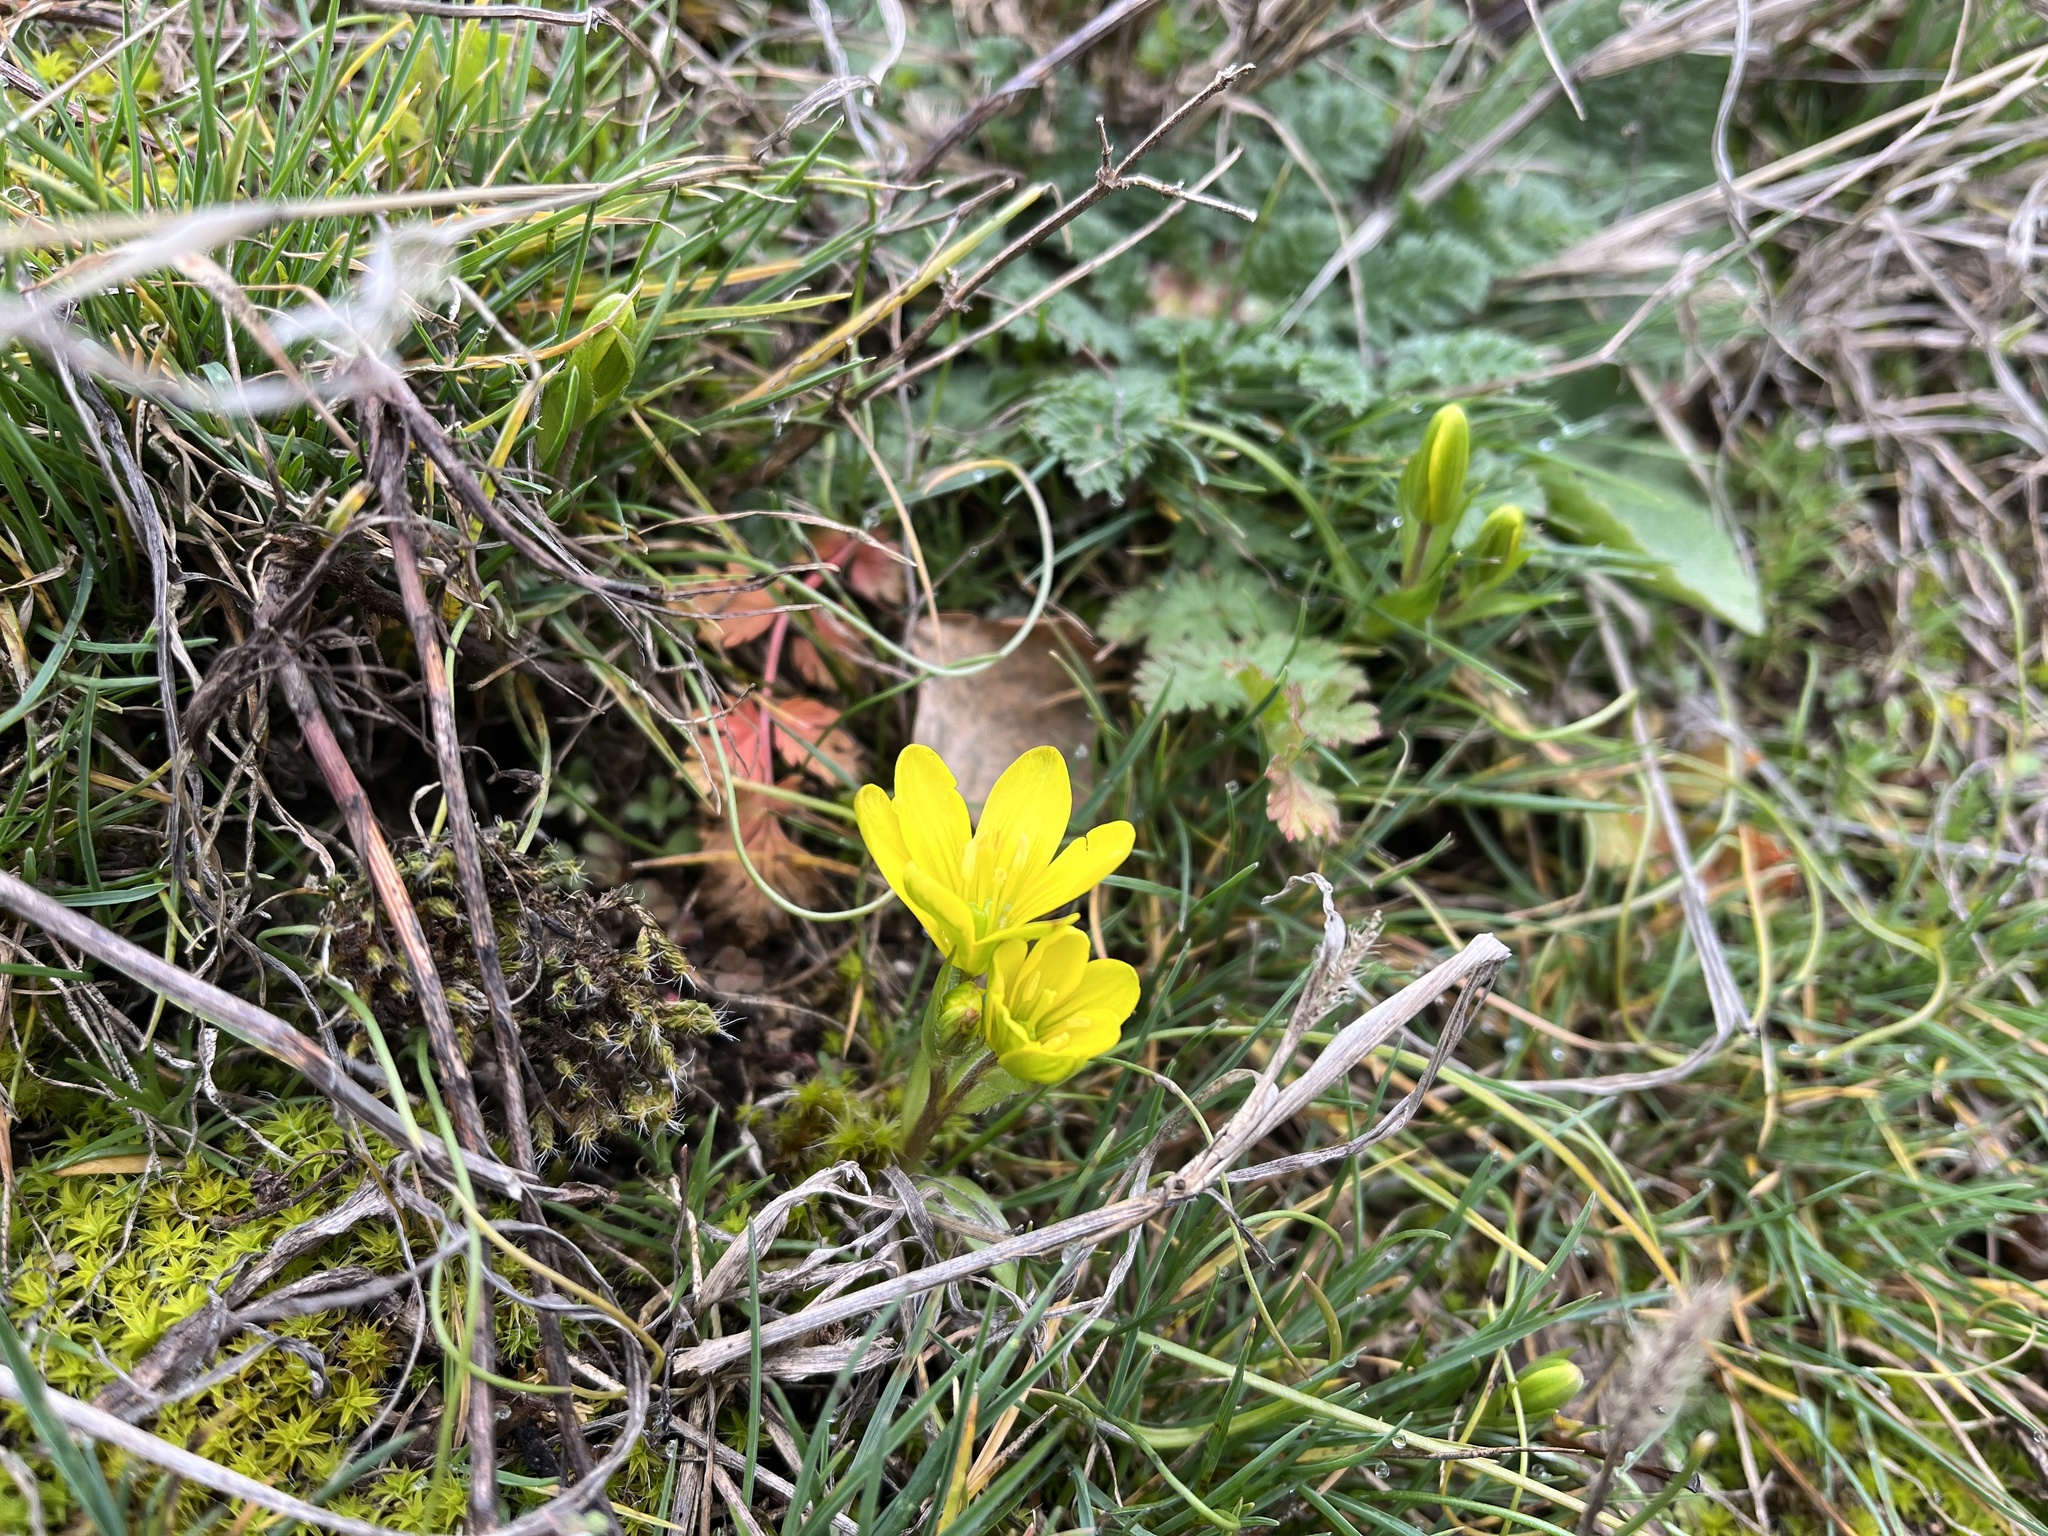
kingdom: Plantae
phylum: Tracheophyta
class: Liliopsida
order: Liliales
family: Liliaceae
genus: Gagea
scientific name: Gagea bohemica
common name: Early star-of-bethlehem
